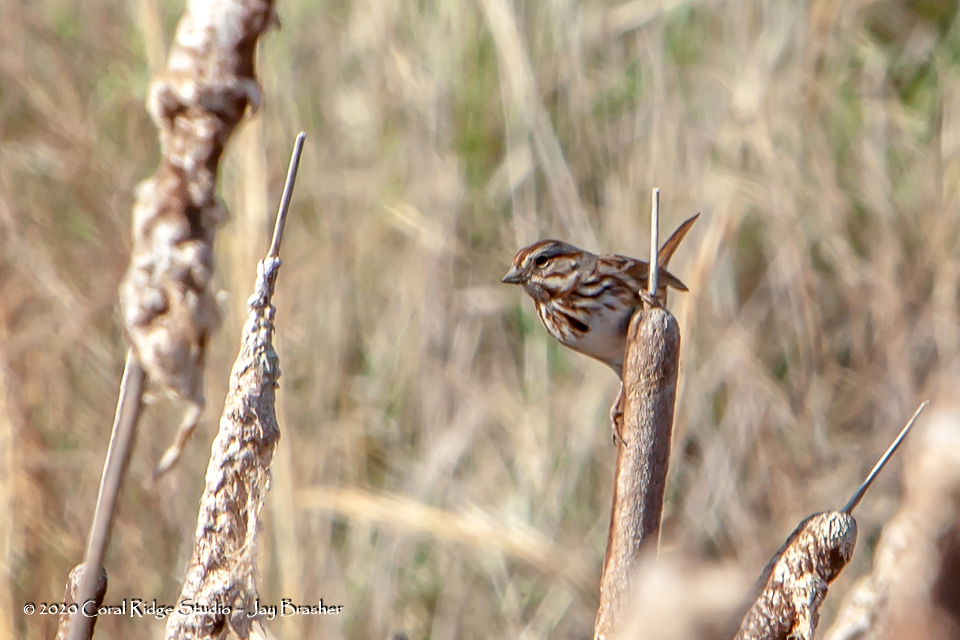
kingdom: Animalia
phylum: Chordata
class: Aves
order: Passeriformes
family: Passerellidae
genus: Melospiza
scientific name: Melospiza melodia
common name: Song sparrow
